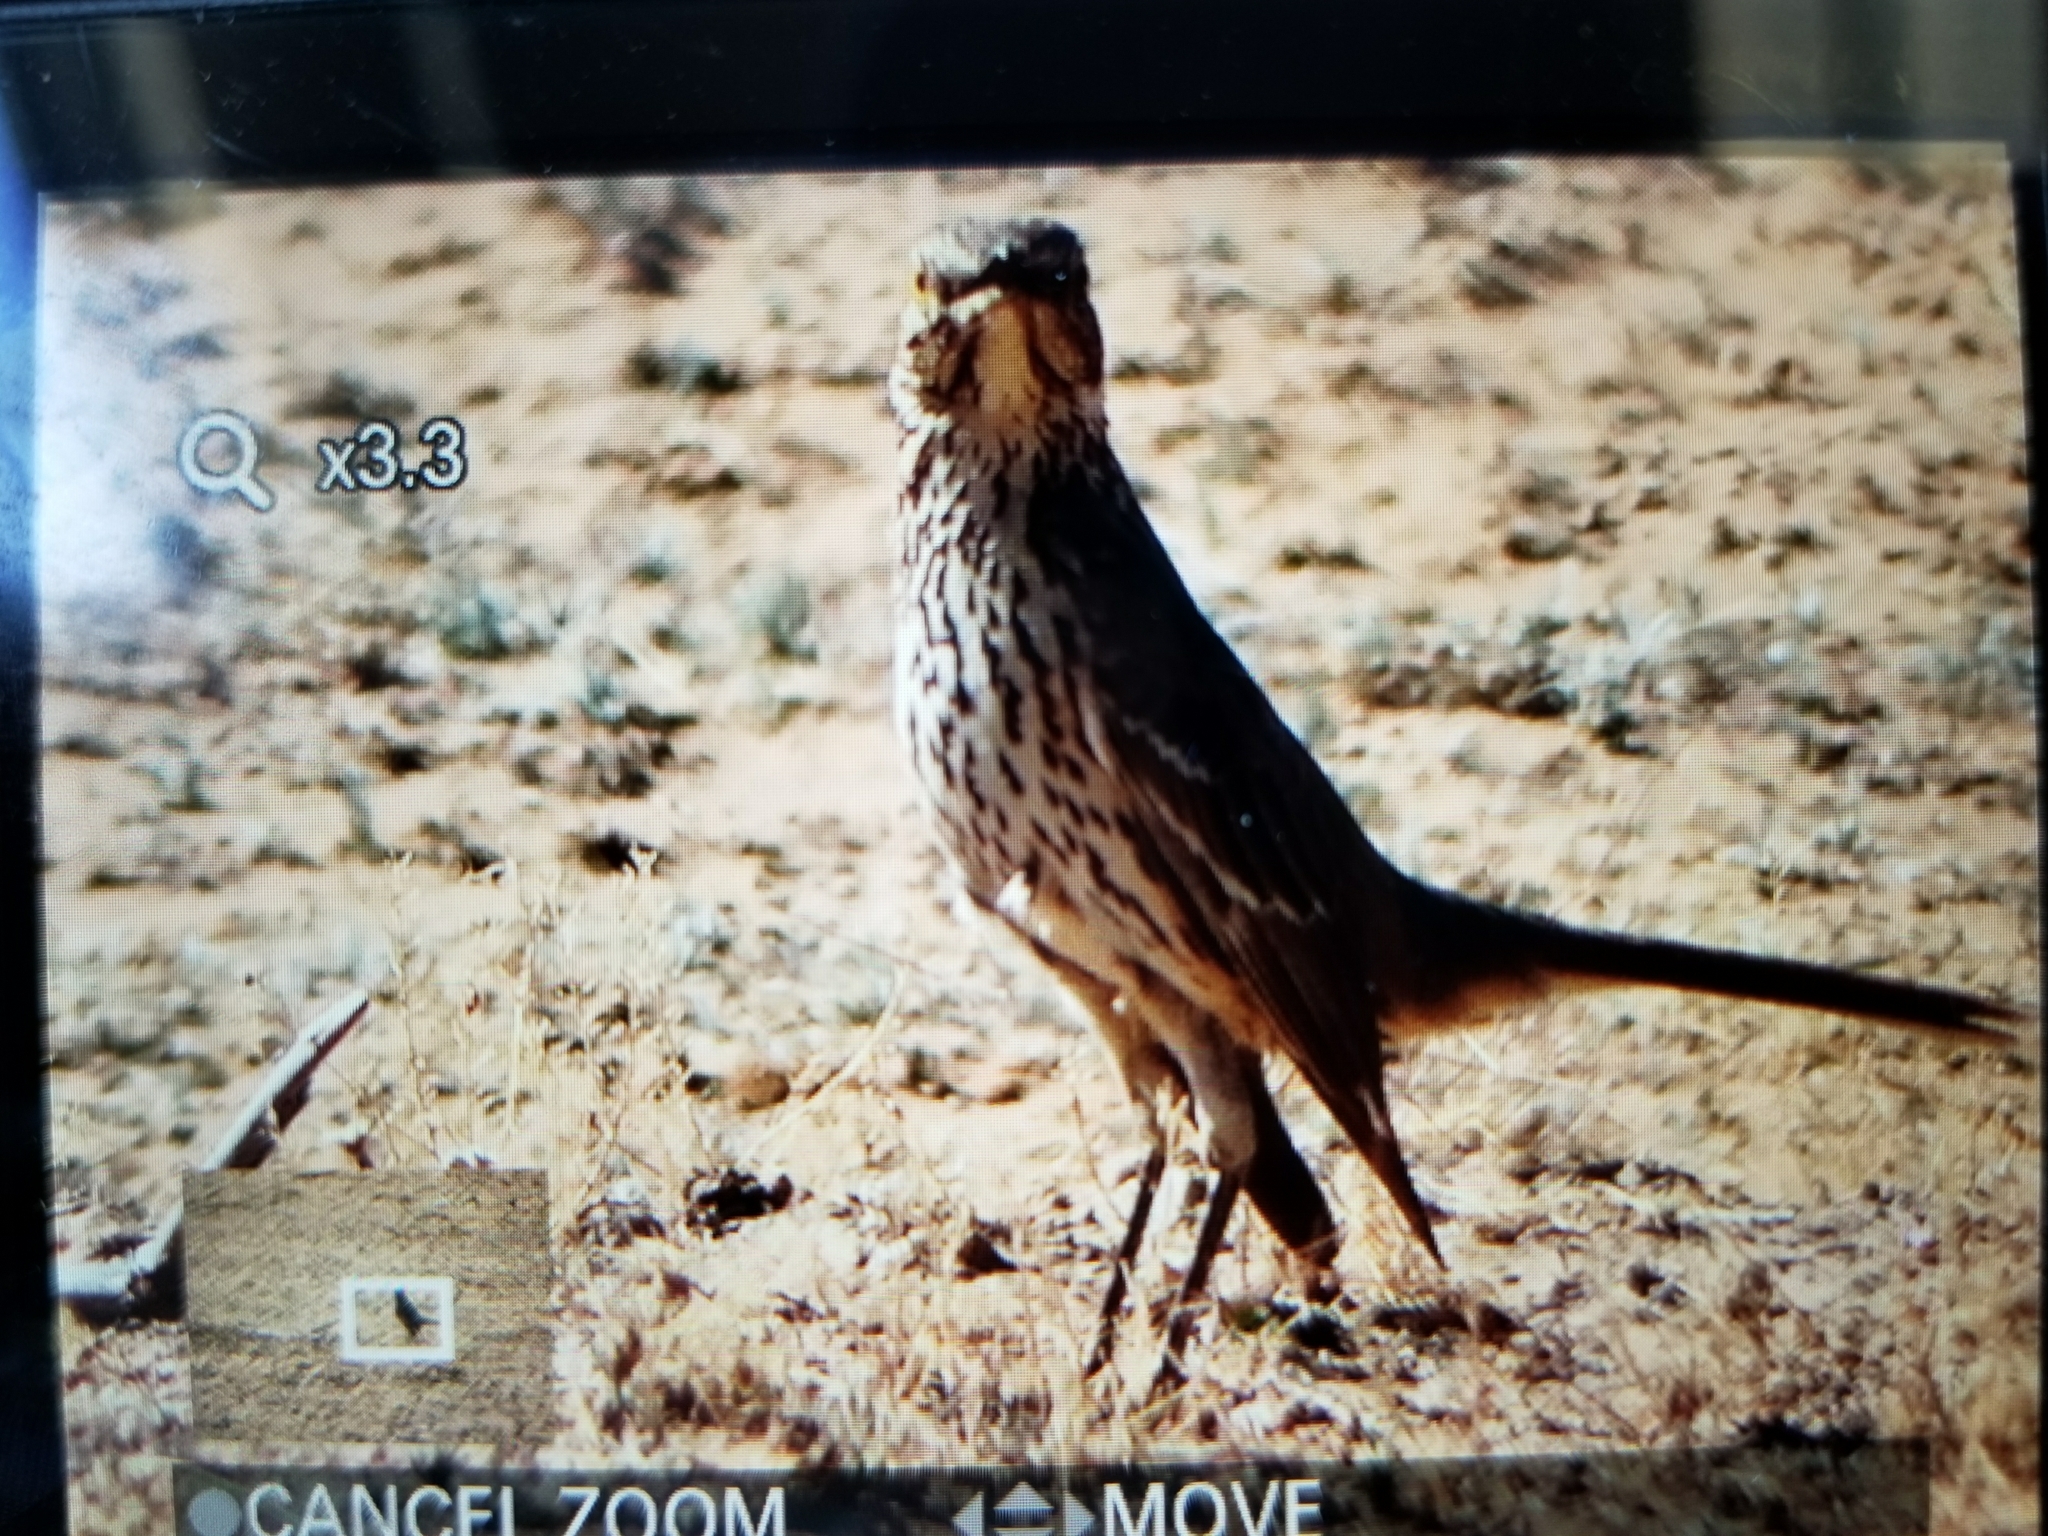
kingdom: Animalia
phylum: Chordata
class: Aves
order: Passeriformes
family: Mimidae
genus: Oreoscoptes
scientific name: Oreoscoptes montanus
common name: Sage thrasher
